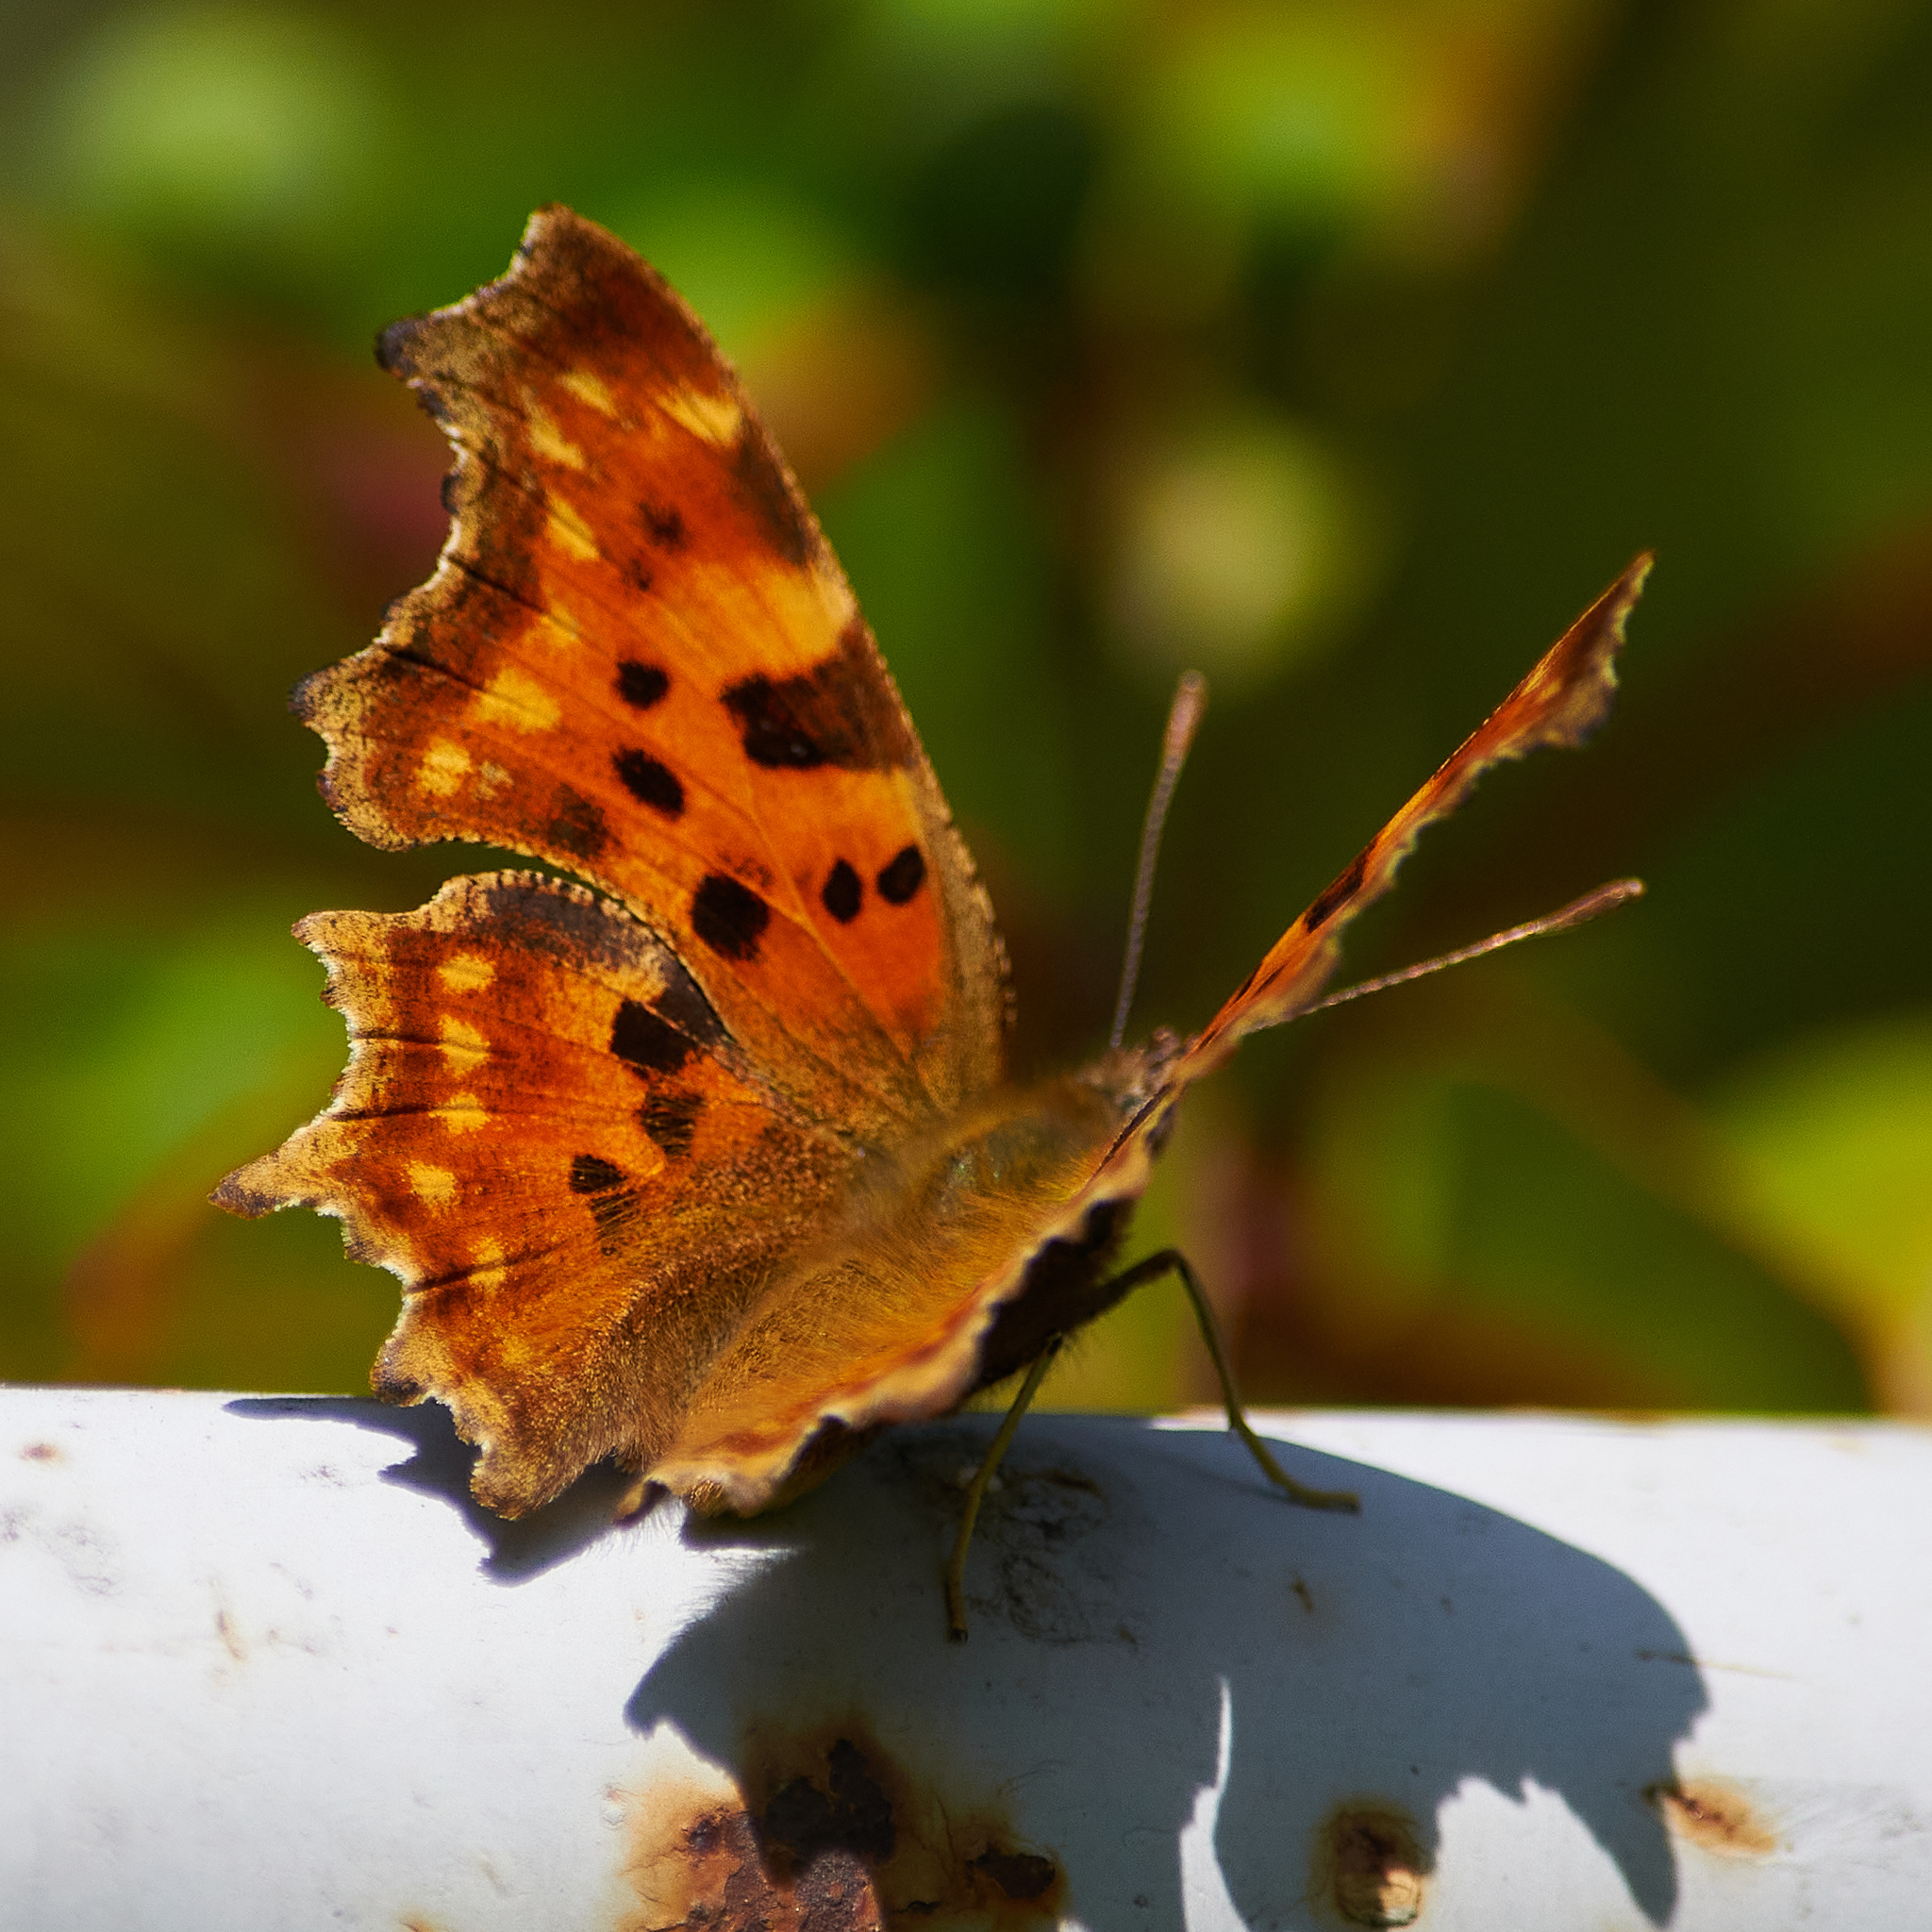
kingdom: Animalia
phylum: Arthropoda
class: Insecta
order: Lepidoptera
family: Nymphalidae
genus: Polygonia
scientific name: Polygonia c-album
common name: Comma
